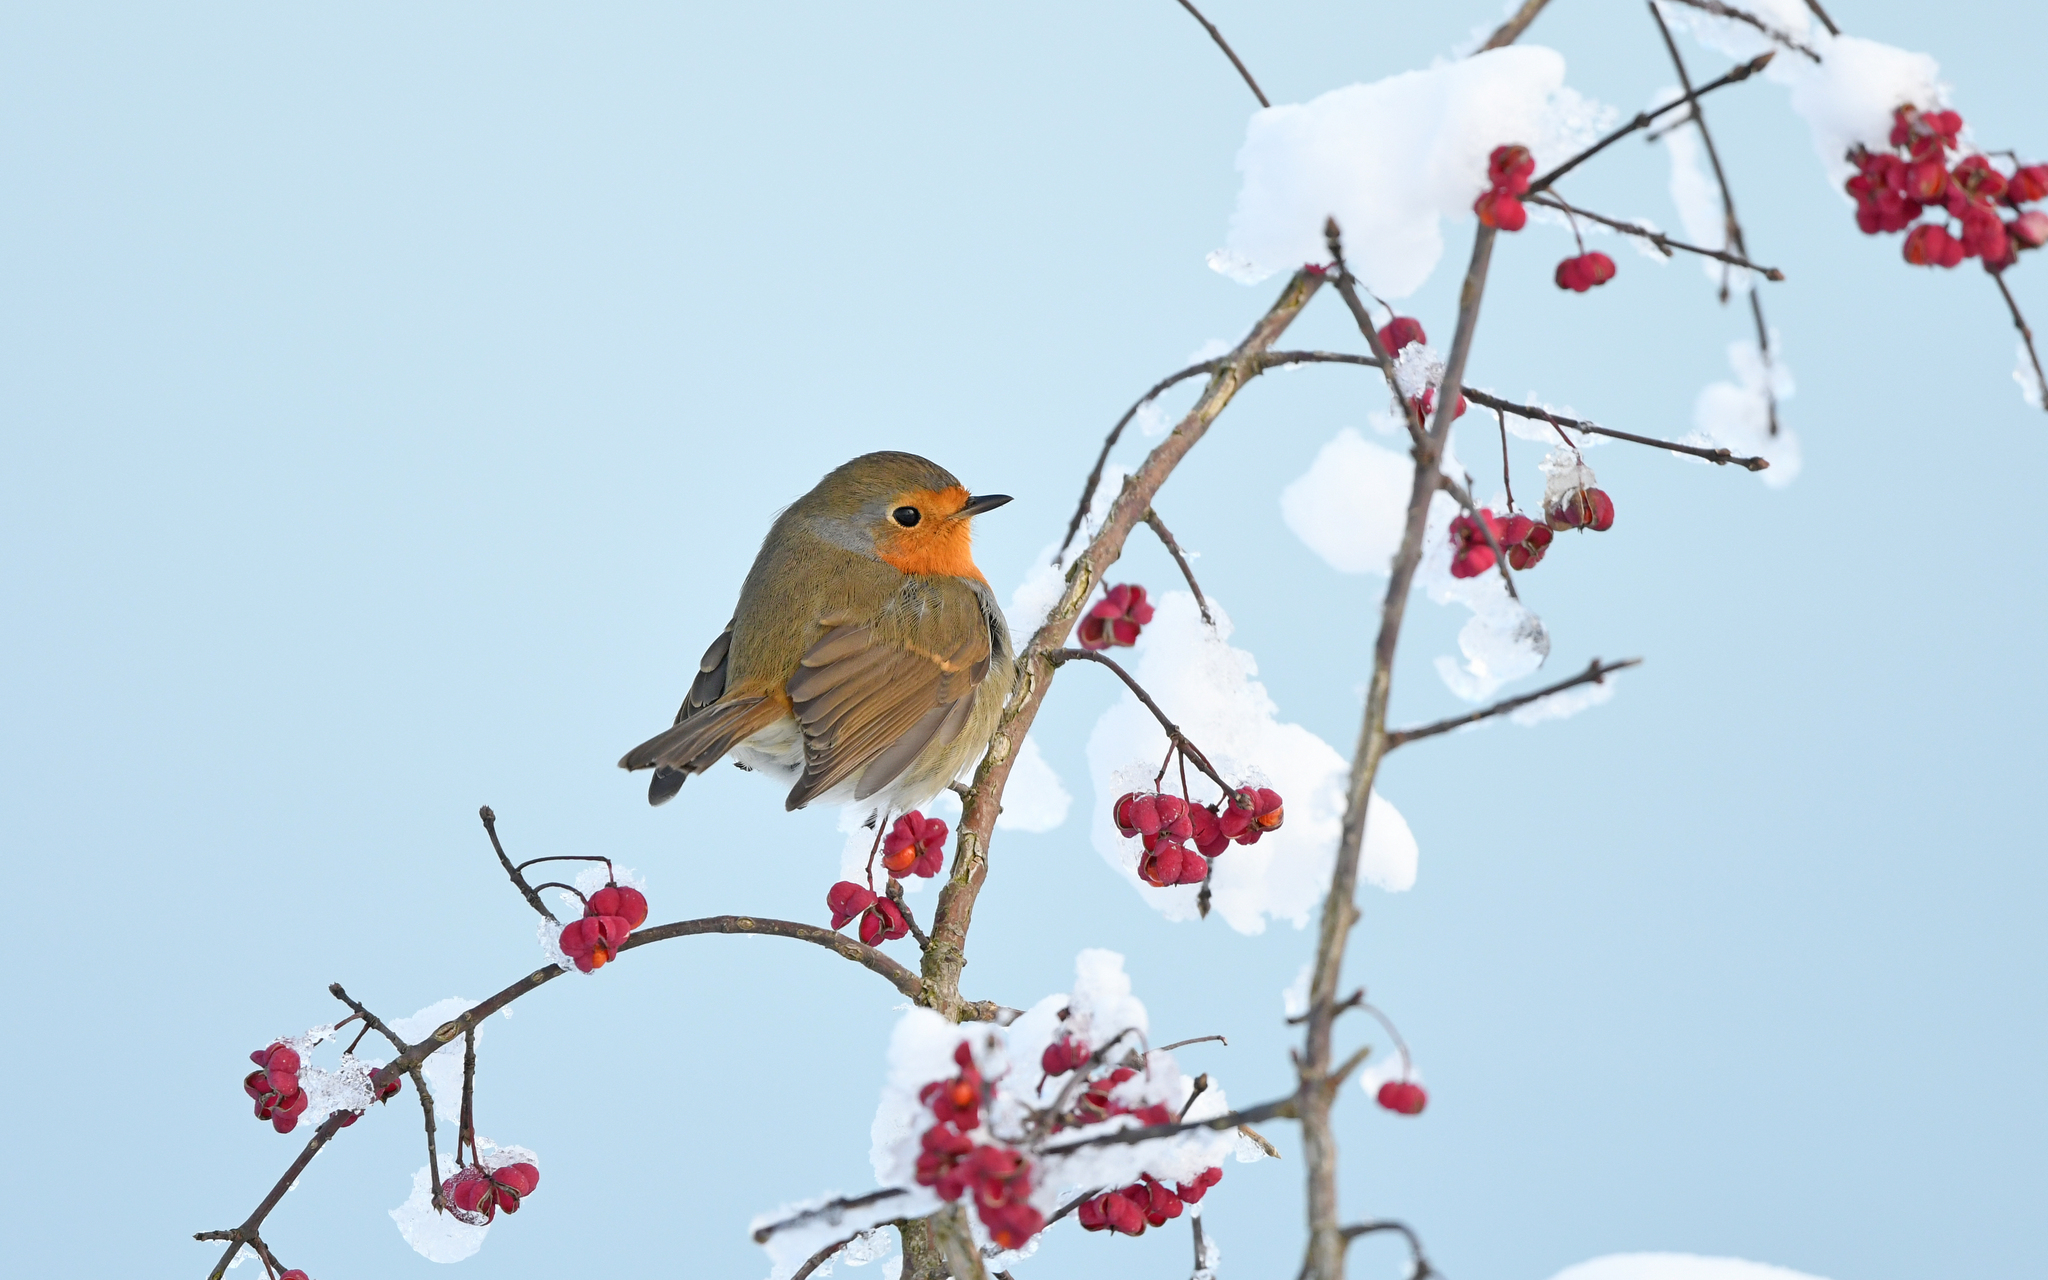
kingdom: Animalia
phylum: Chordata
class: Aves
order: Passeriformes
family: Muscicapidae
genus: Erithacus
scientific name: Erithacus rubecula
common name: European robin
